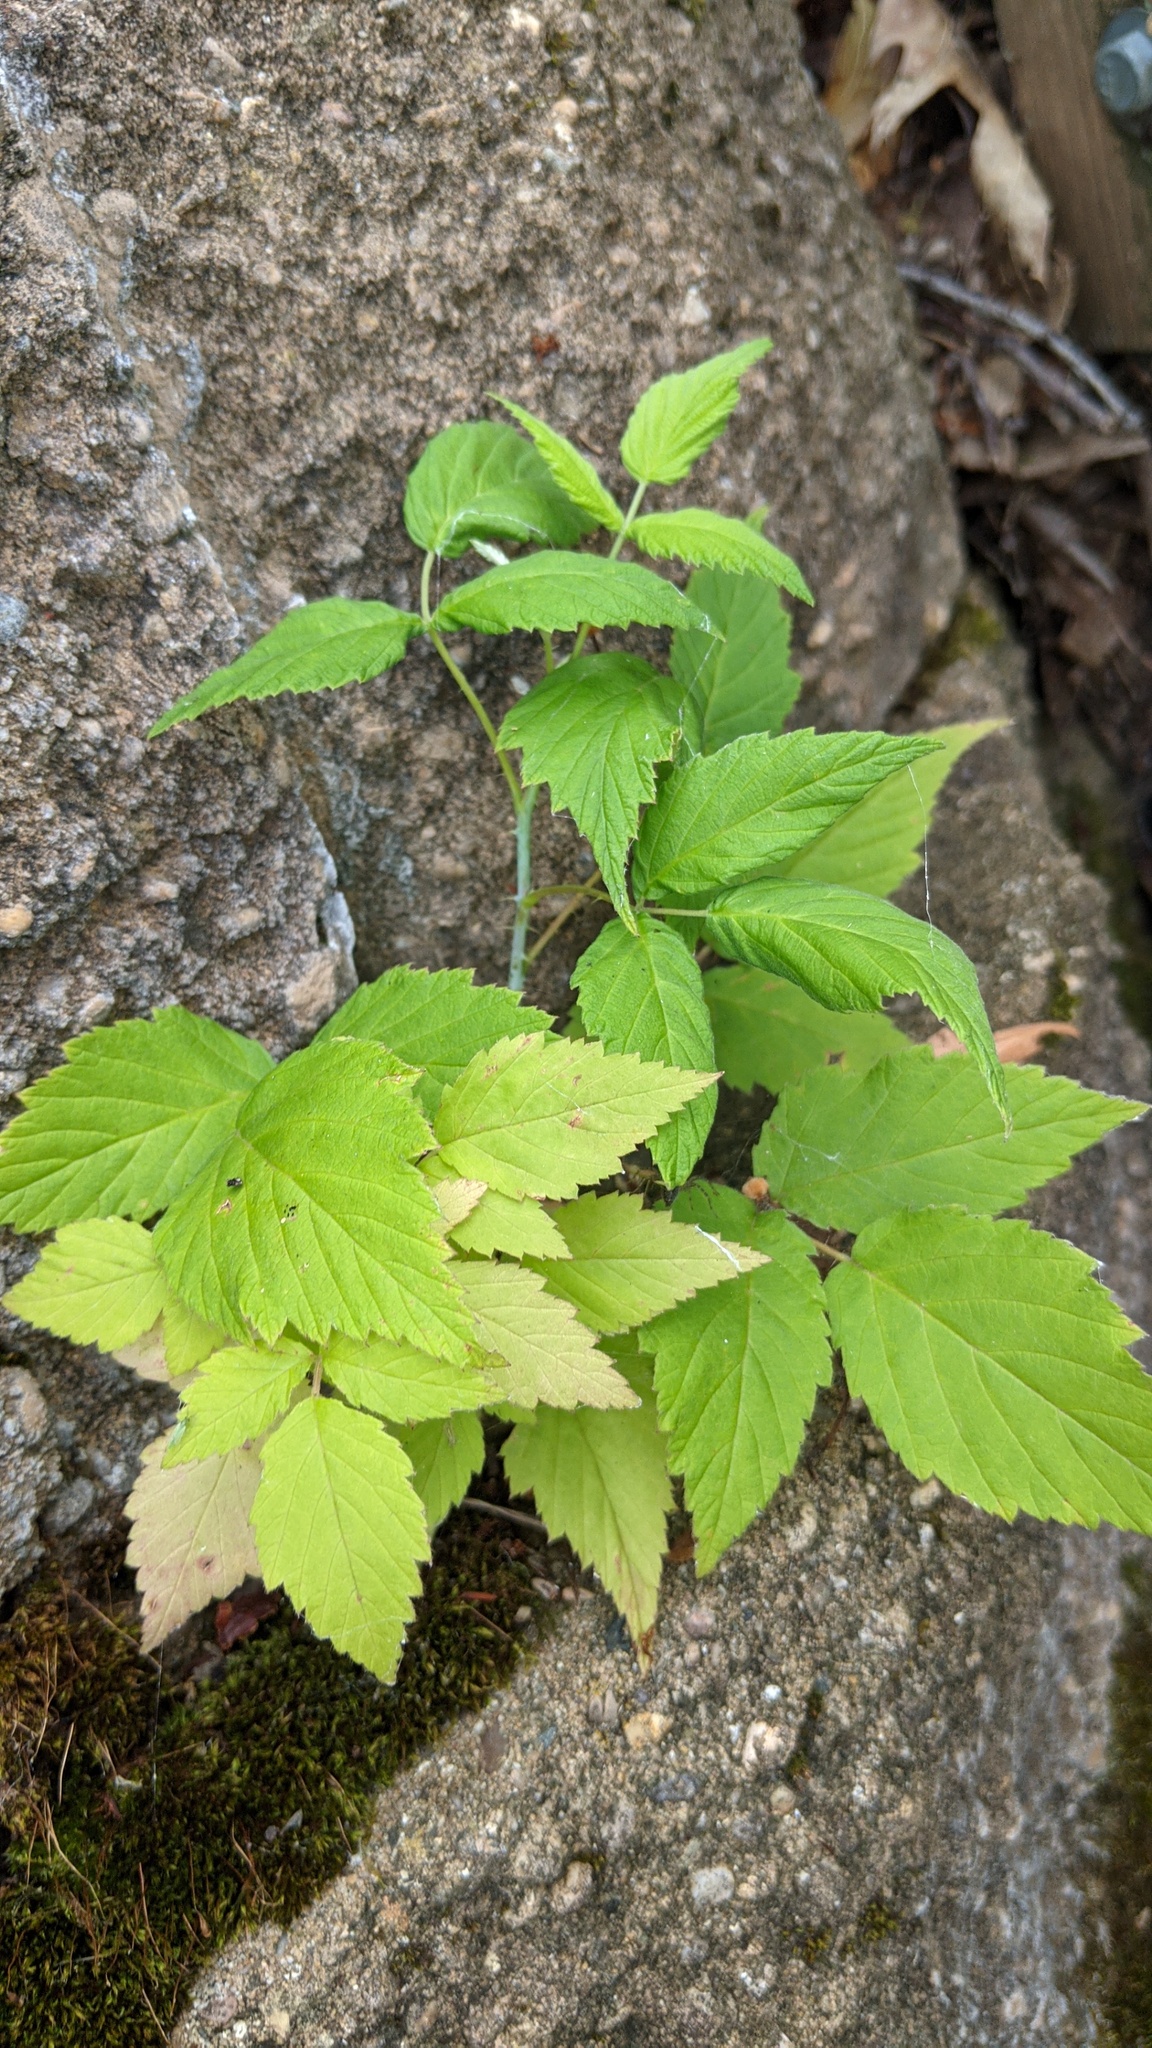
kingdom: Plantae
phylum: Tracheophyta
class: Magnoliopsida
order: Rosales
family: Rosaceae
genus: Rubus
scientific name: Rubus occidentalis
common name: Black raspberry
